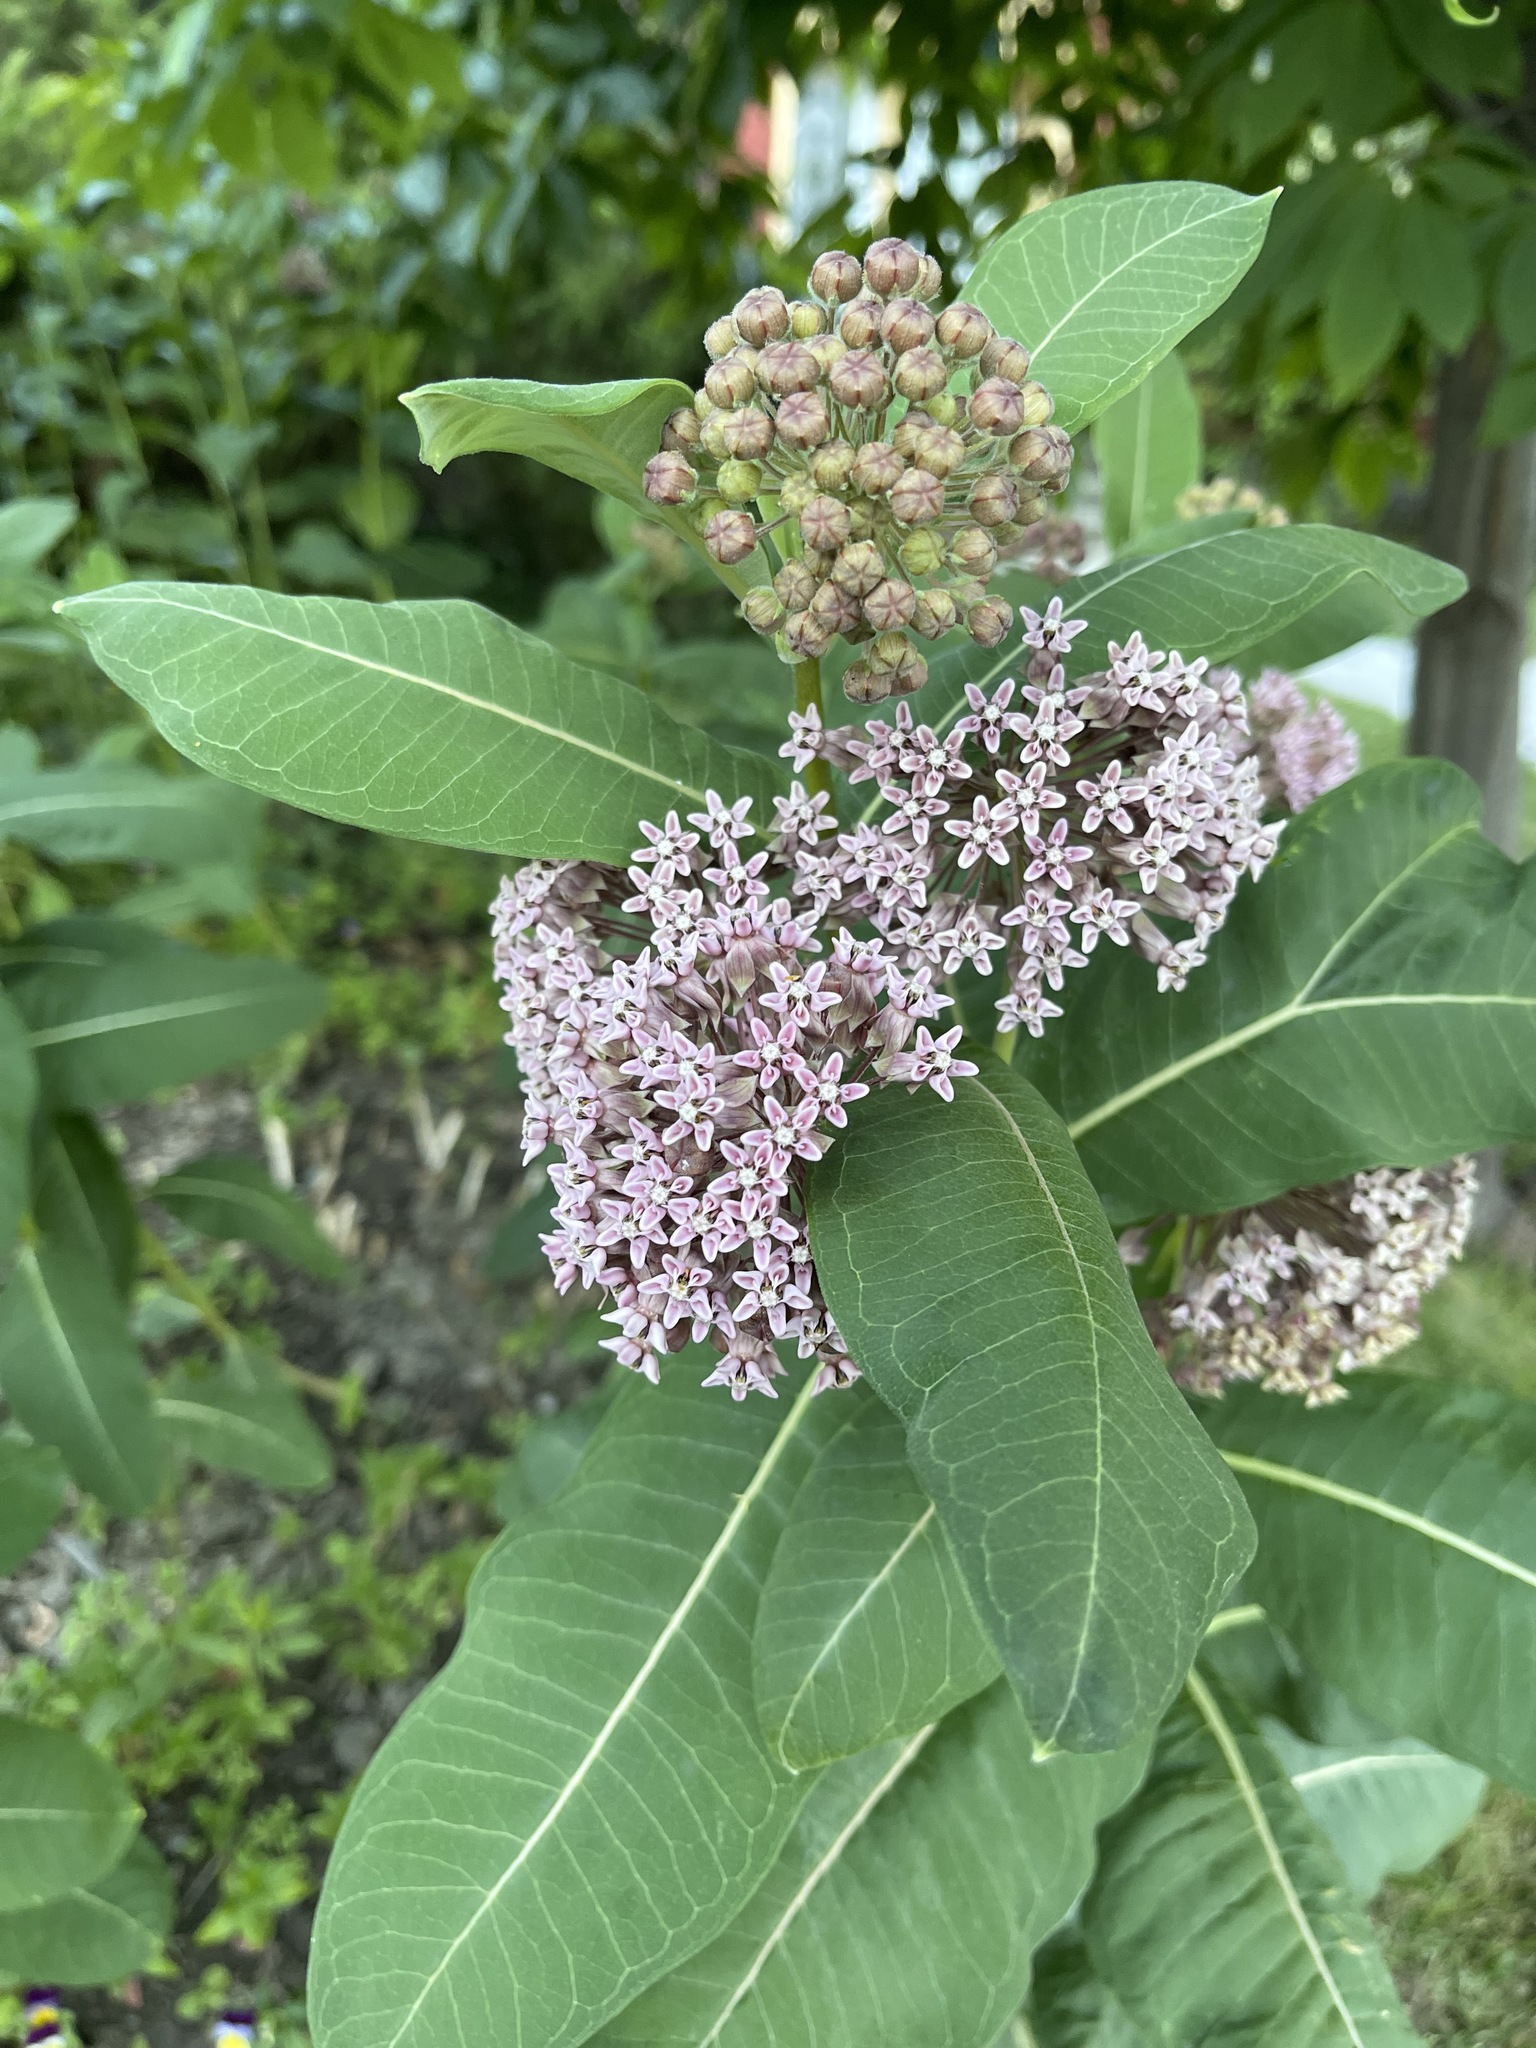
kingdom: Plantae
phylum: Tracheophyta
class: Magnoliopsida
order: Gentianales
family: Apocynaceae
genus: Asclepias
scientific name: Asclepias syriaca
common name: Common milkweed
